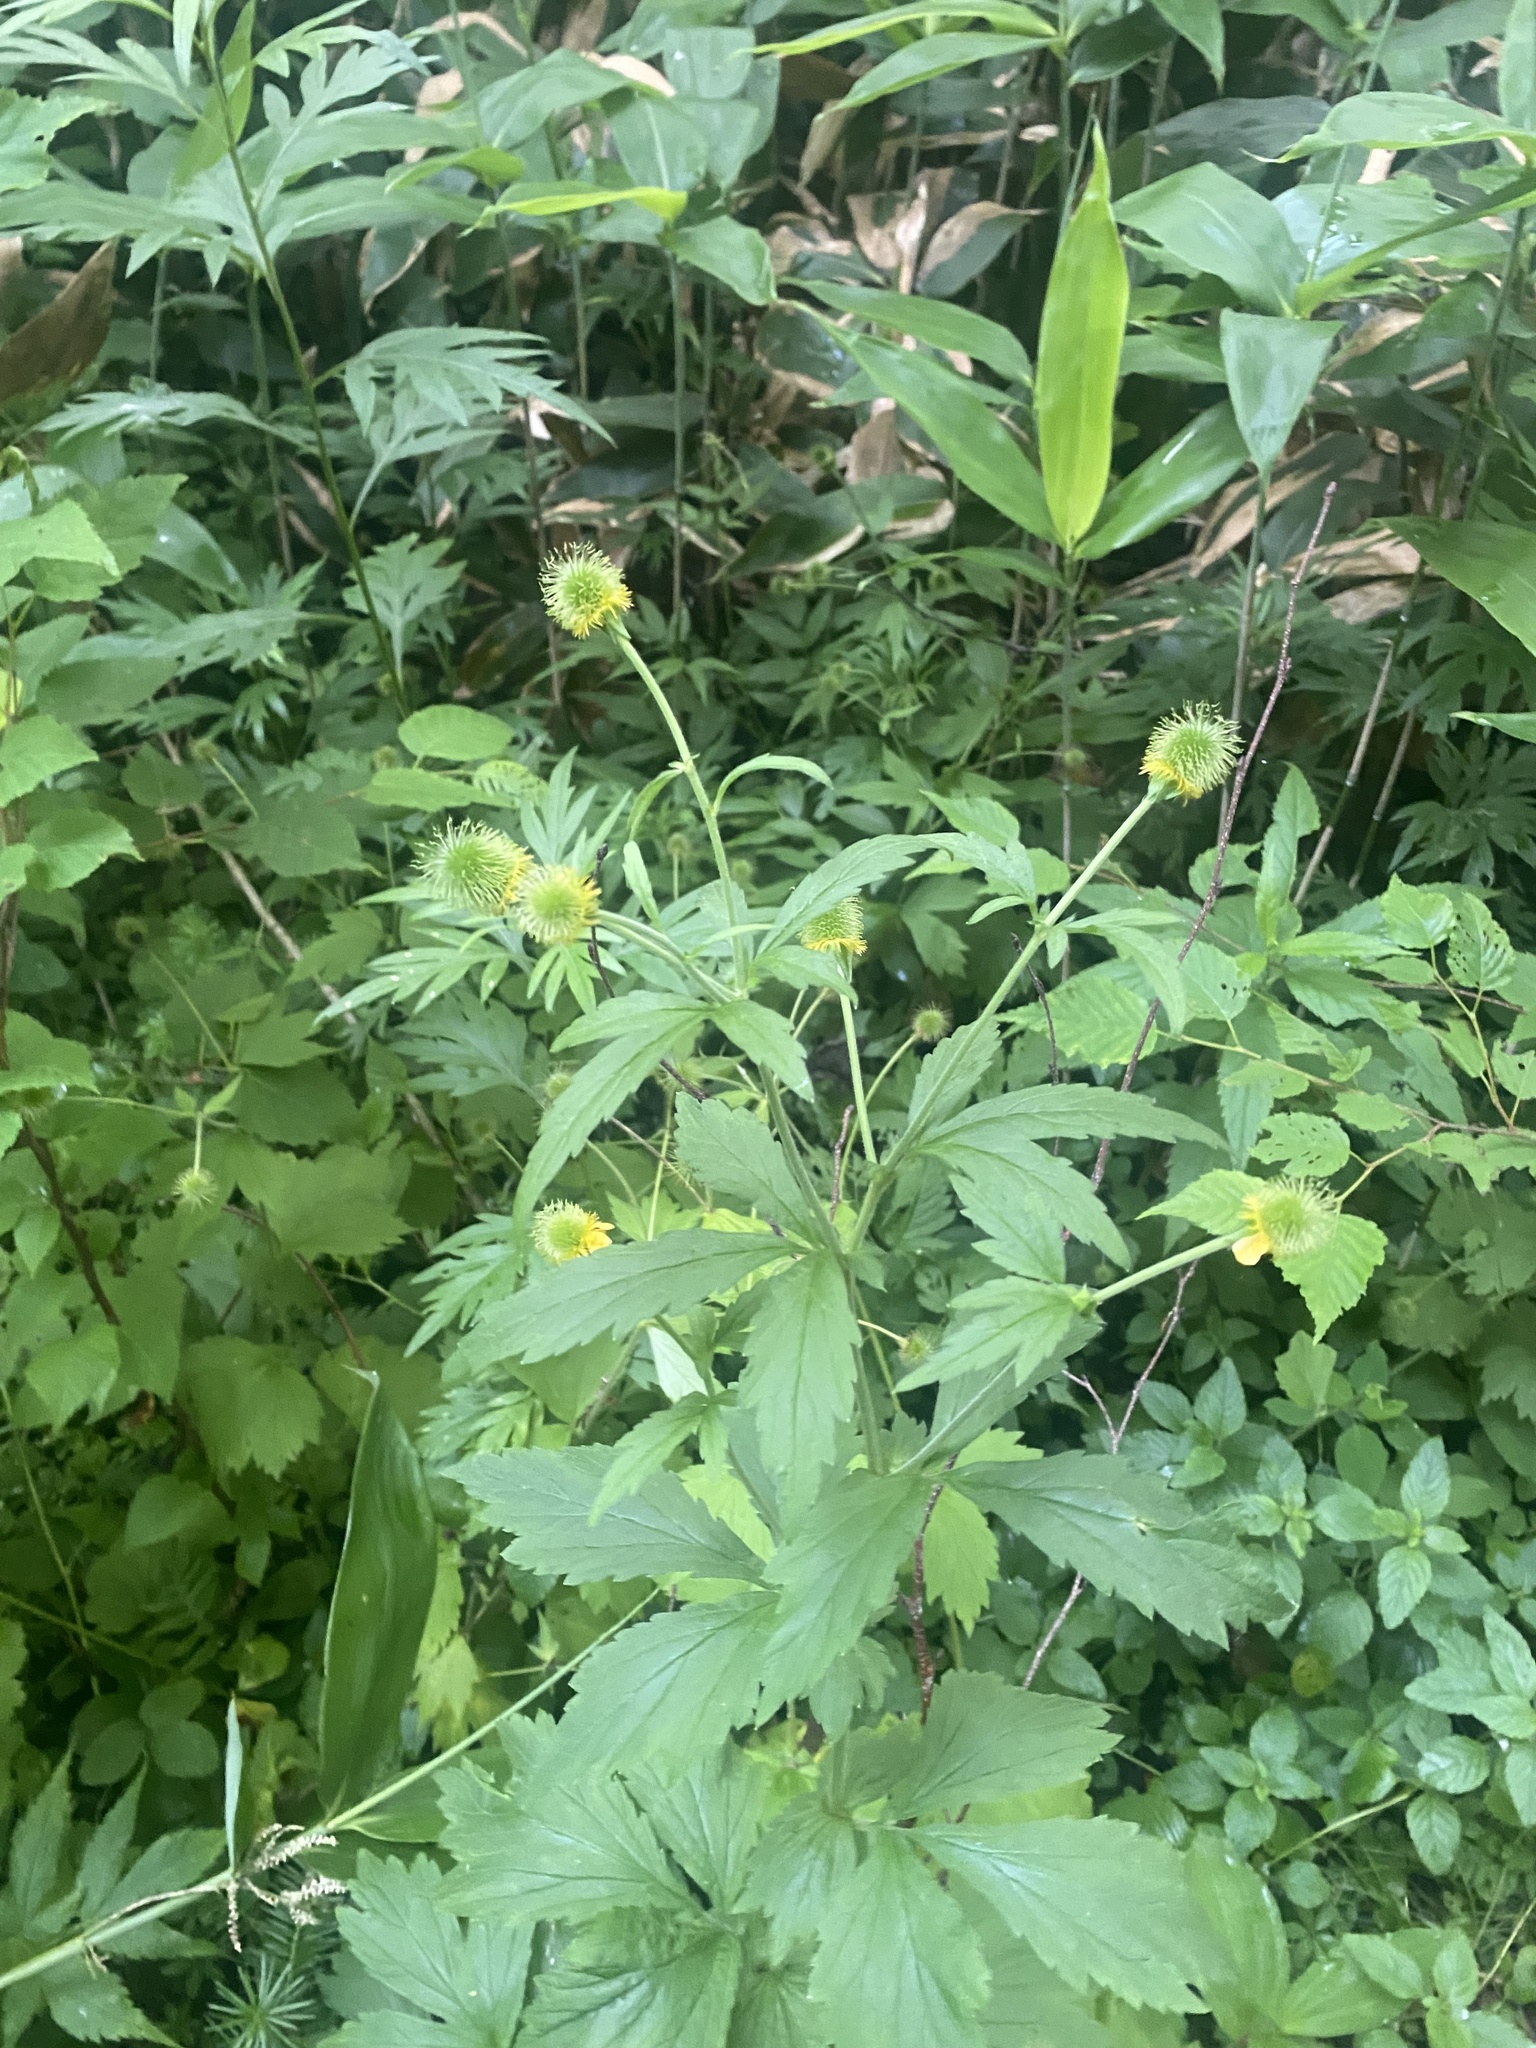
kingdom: Plantae
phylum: Tracheophyta
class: Magnoliopsida
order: Rosales
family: Rosaceae
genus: Geum
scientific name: Geum aleppicum
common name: Yellow avens
